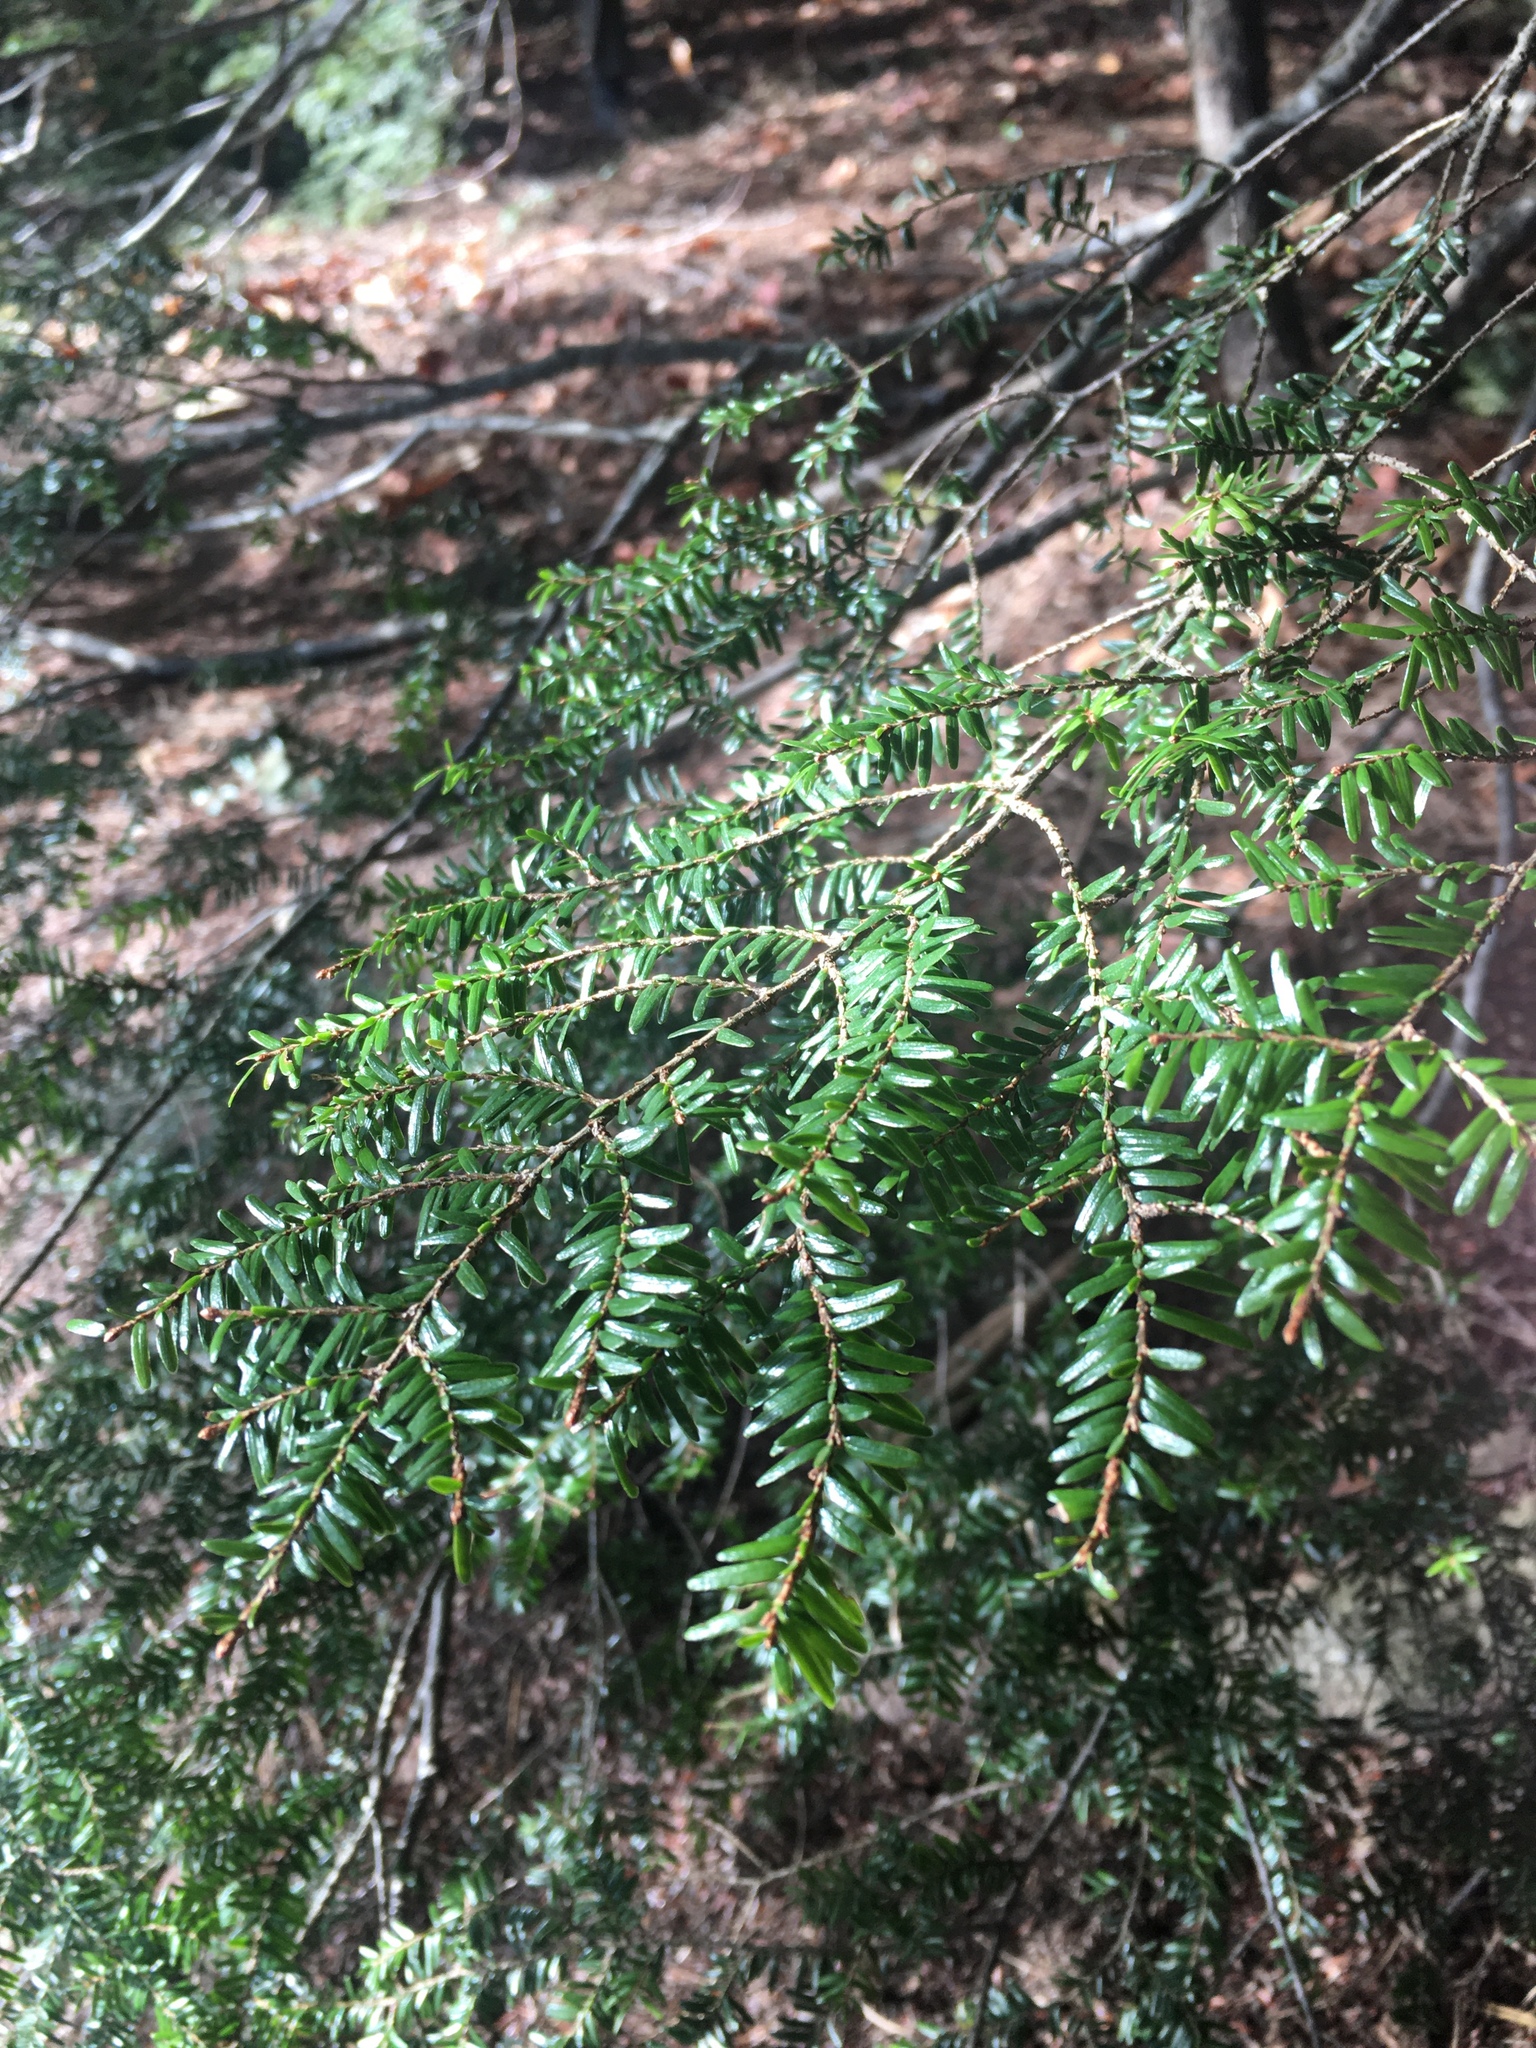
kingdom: Plantae
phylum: Tracheophyta
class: Pinopsida
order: Pinales
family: Pinaceae
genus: Tsuga
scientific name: Tsuga canadensis
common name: Eastern hemlock
